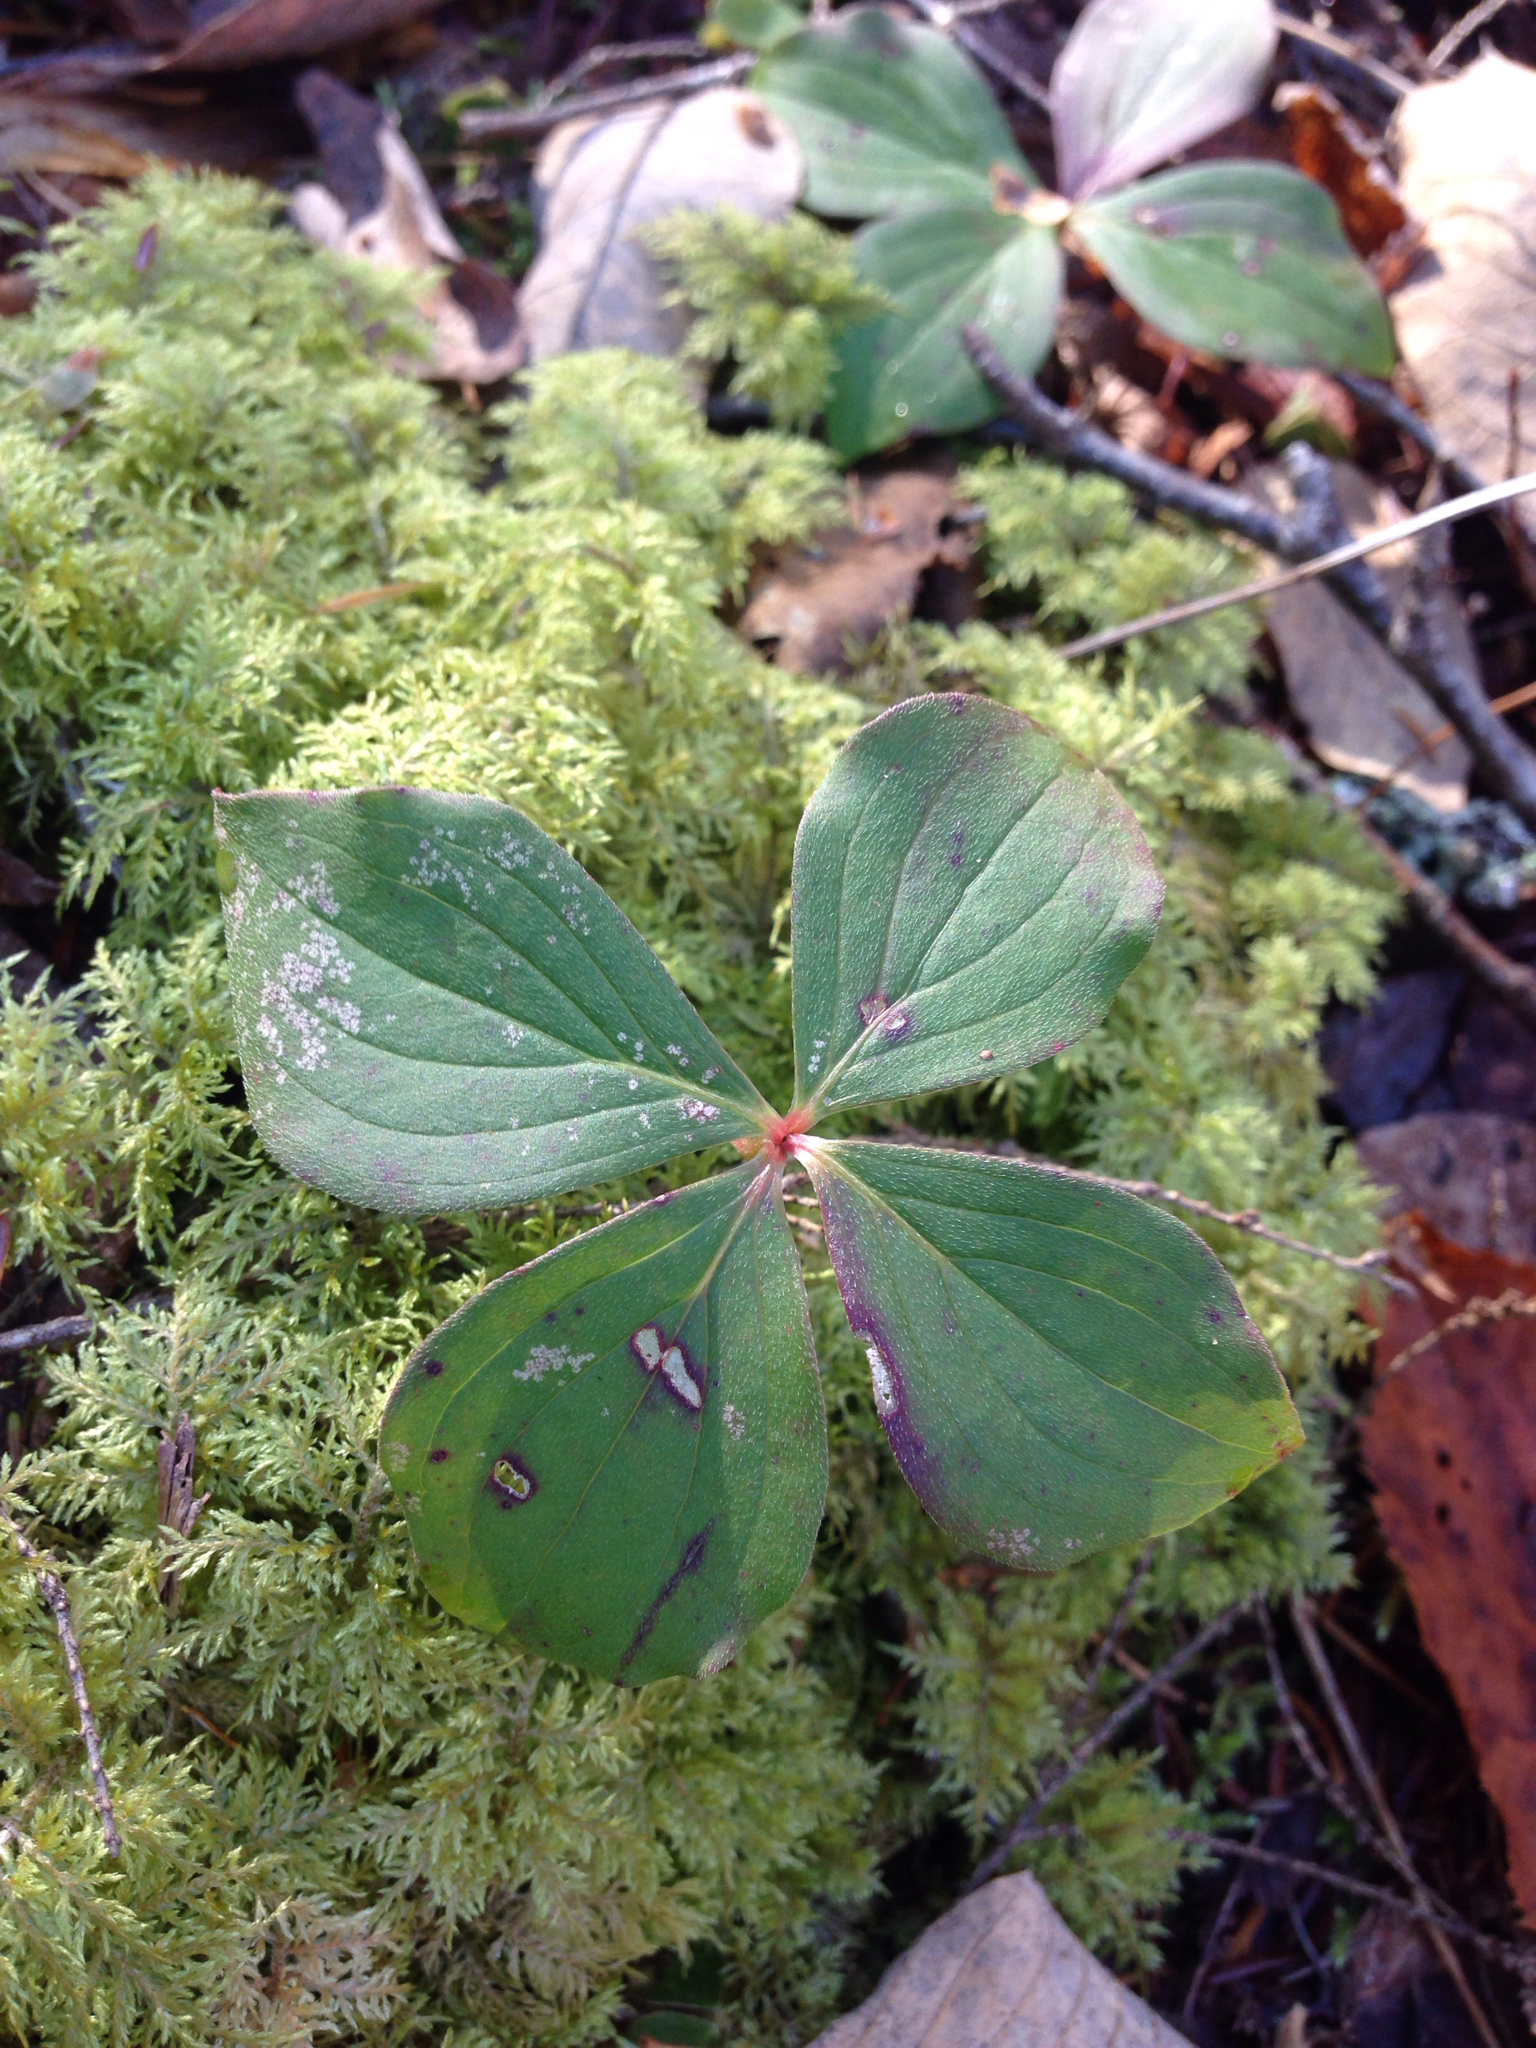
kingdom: Plantae
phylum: Tracheophyta
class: Magnoliopsida
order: Cornales
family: Cornaceae
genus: Cornus
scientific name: Cornus canadensis
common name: Creeping dogwood
